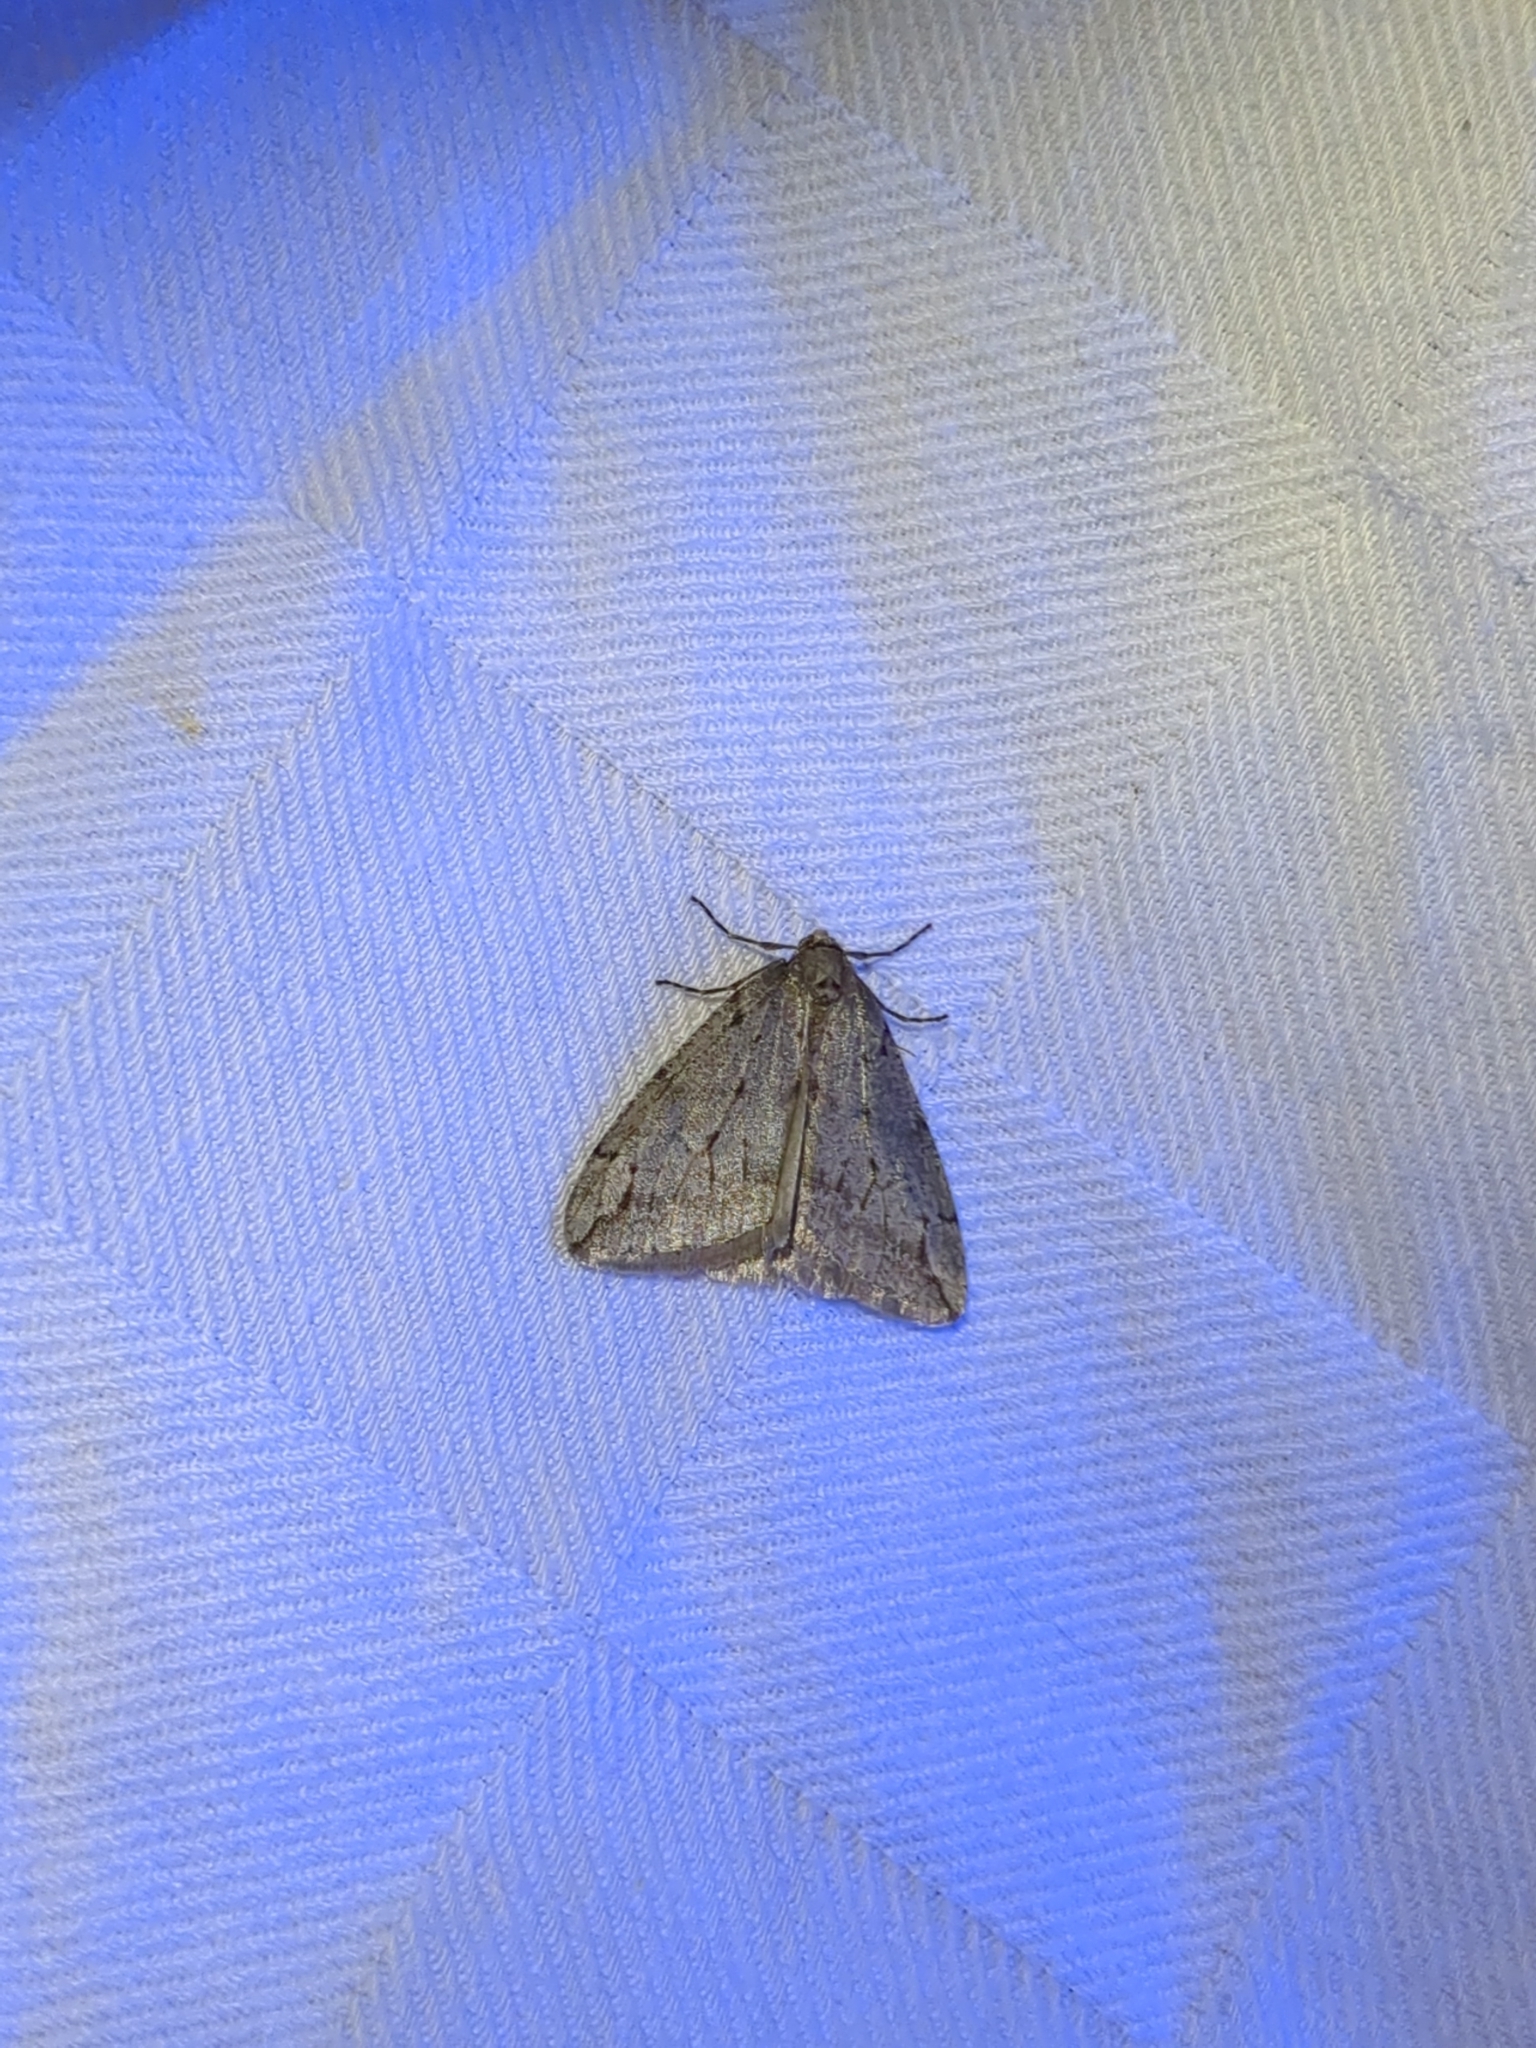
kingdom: Animalia
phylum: Arthropoda
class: Insecta
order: Lepidoptera
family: Geometridae
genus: Paleacrita
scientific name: Paleacrita vernata
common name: Spring cankerworm
